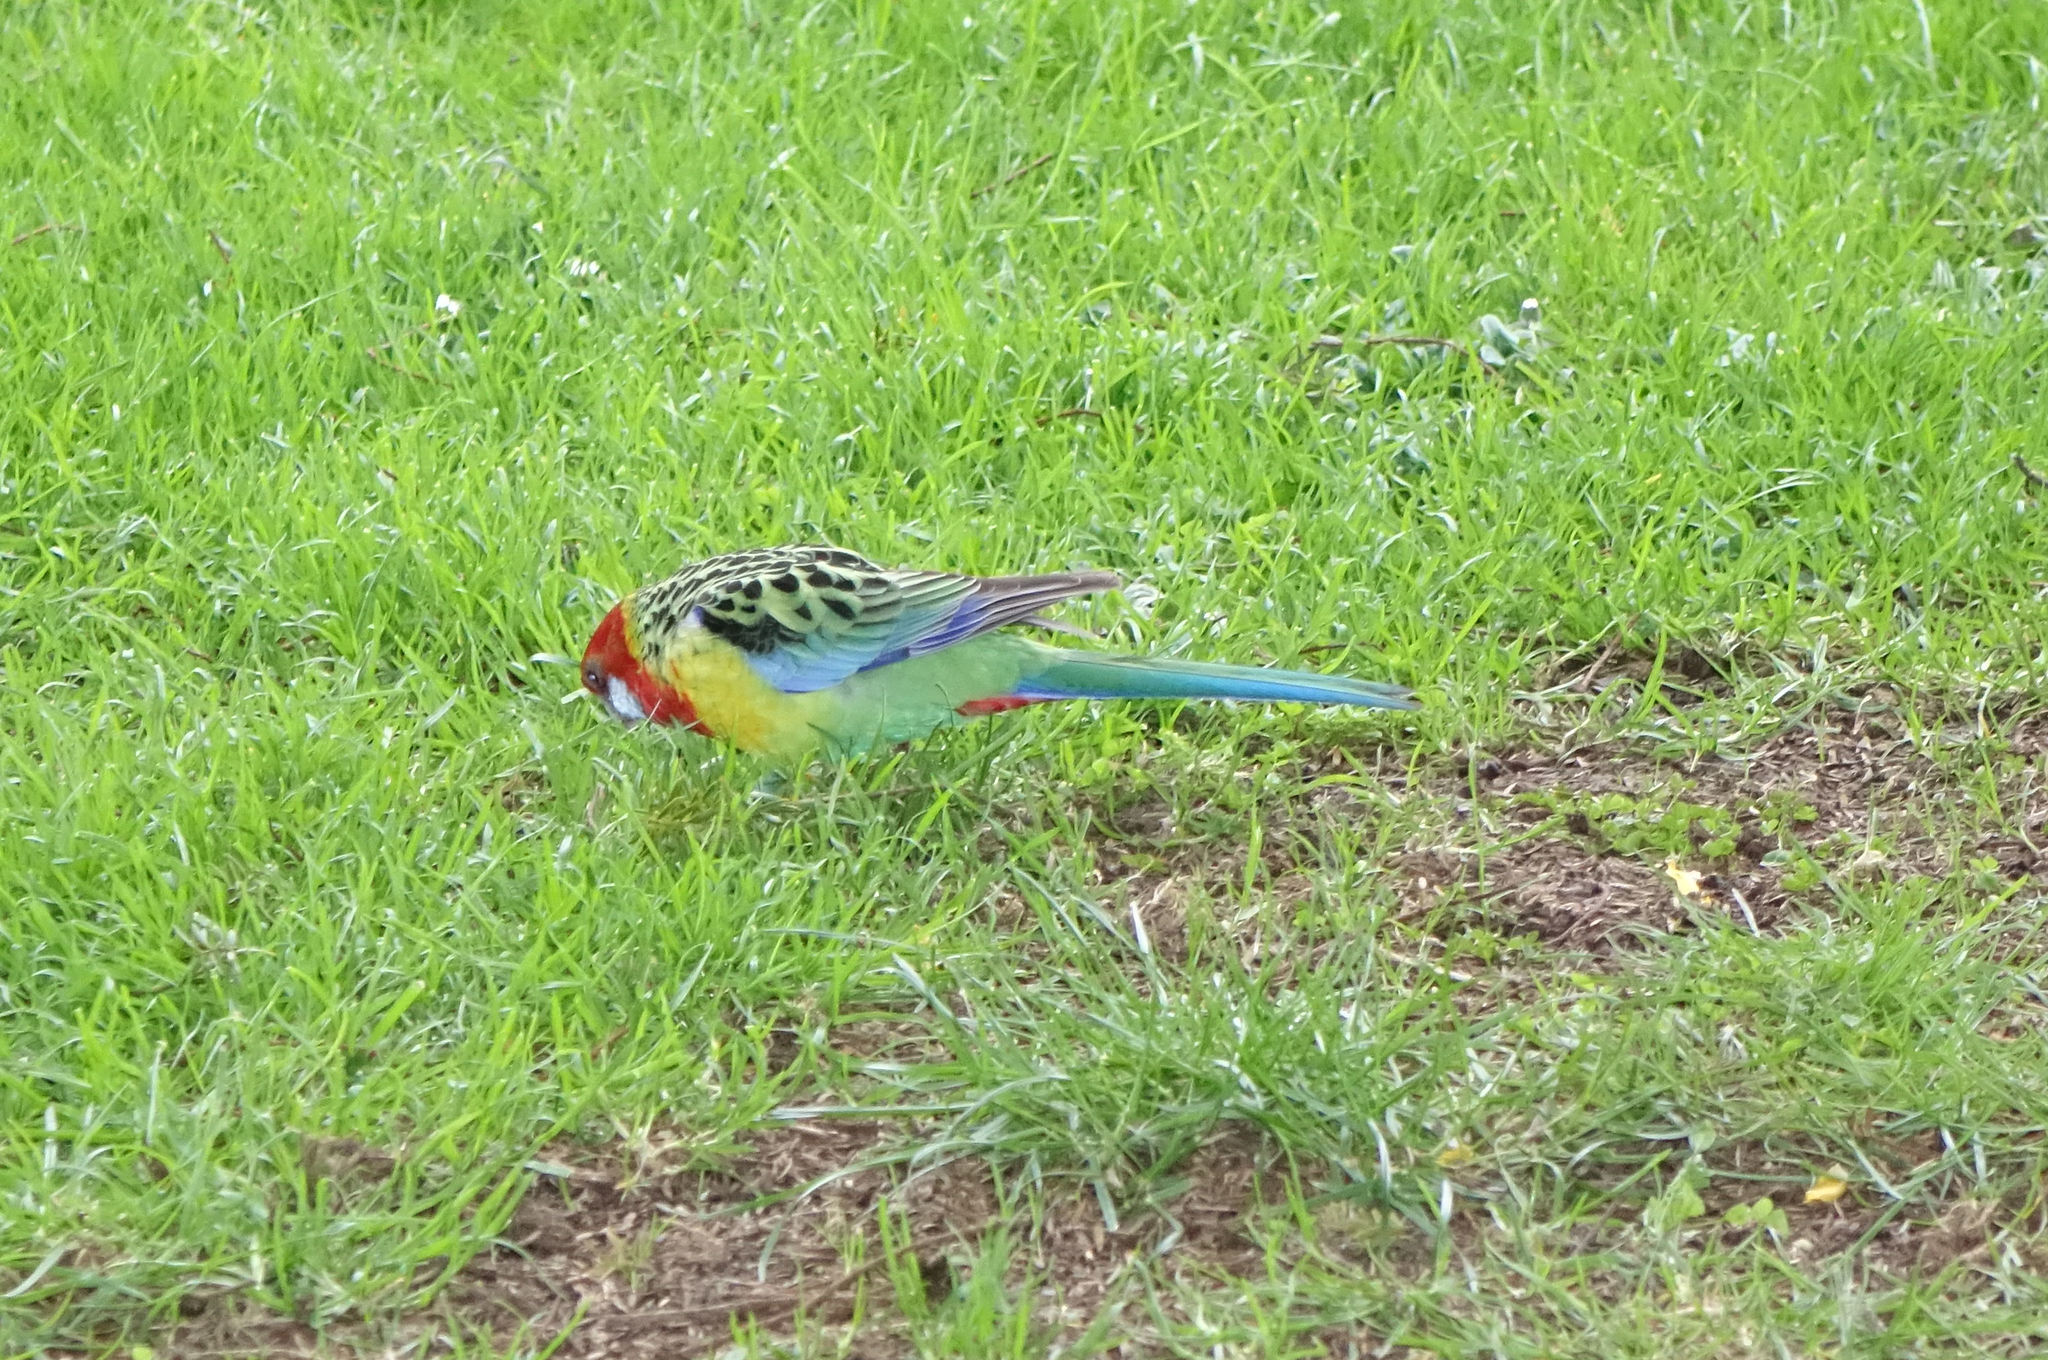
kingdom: Animalia
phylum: Chordata
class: Aves
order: Psittaciformes
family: Psittacidae
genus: Platycercus
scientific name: Platycercus eximius
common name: Eastern rosella
